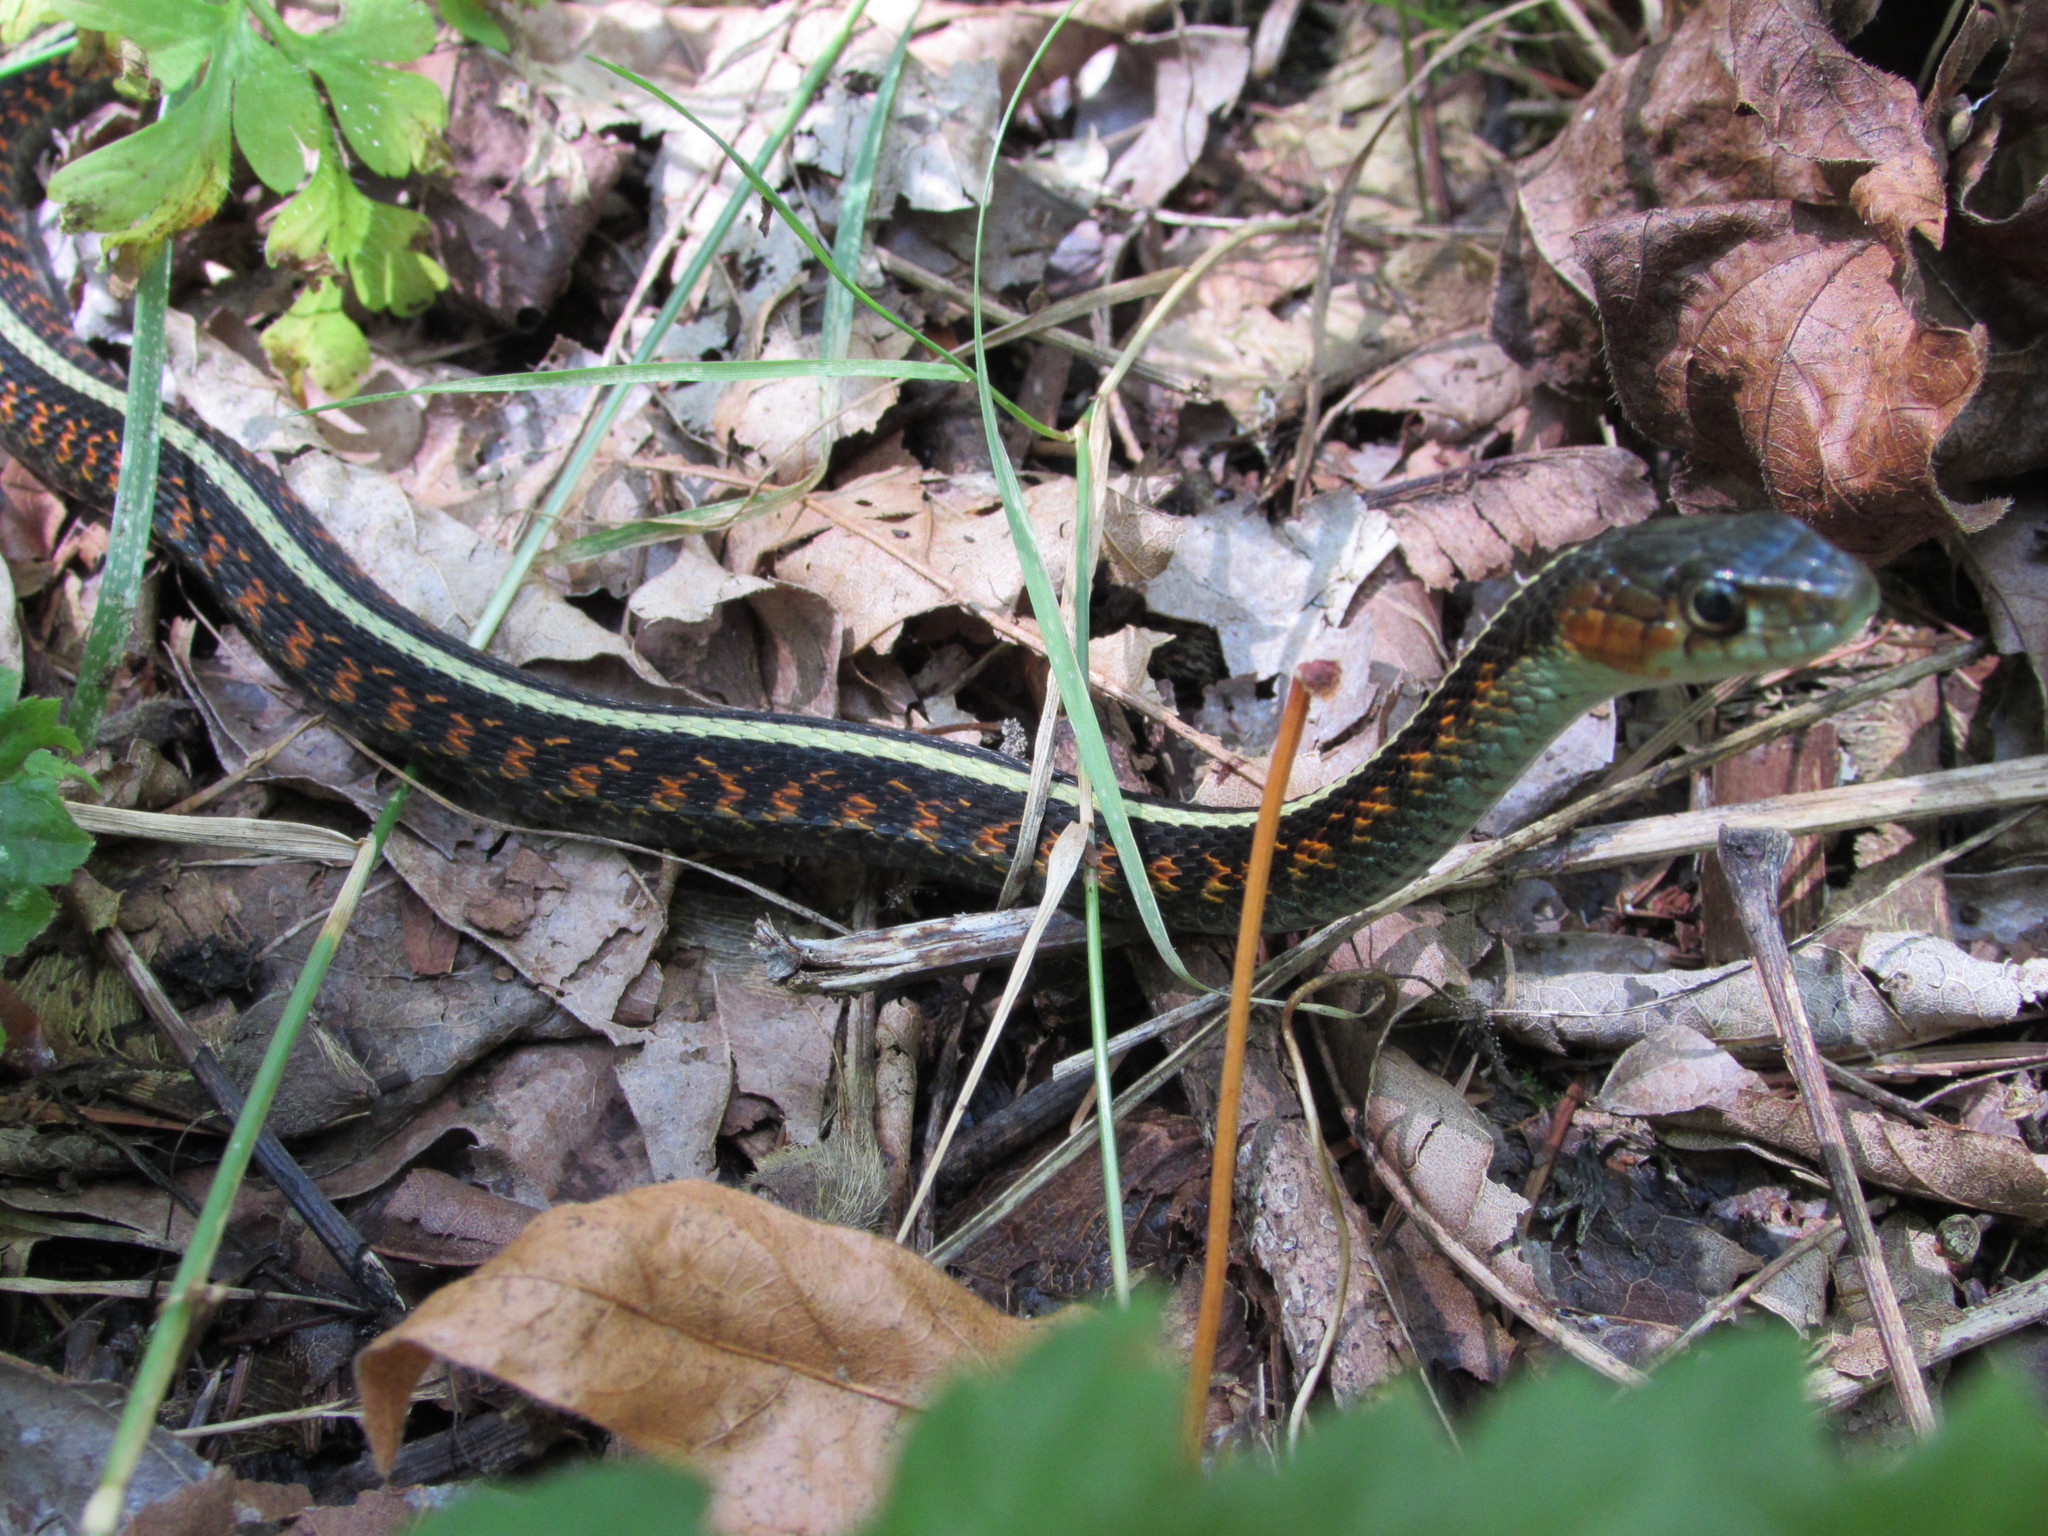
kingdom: Animalia
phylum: Chordata
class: Squamata
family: Colubridae
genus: Thamnophis
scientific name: Thamnophis sirtalis
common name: Common garter snake
